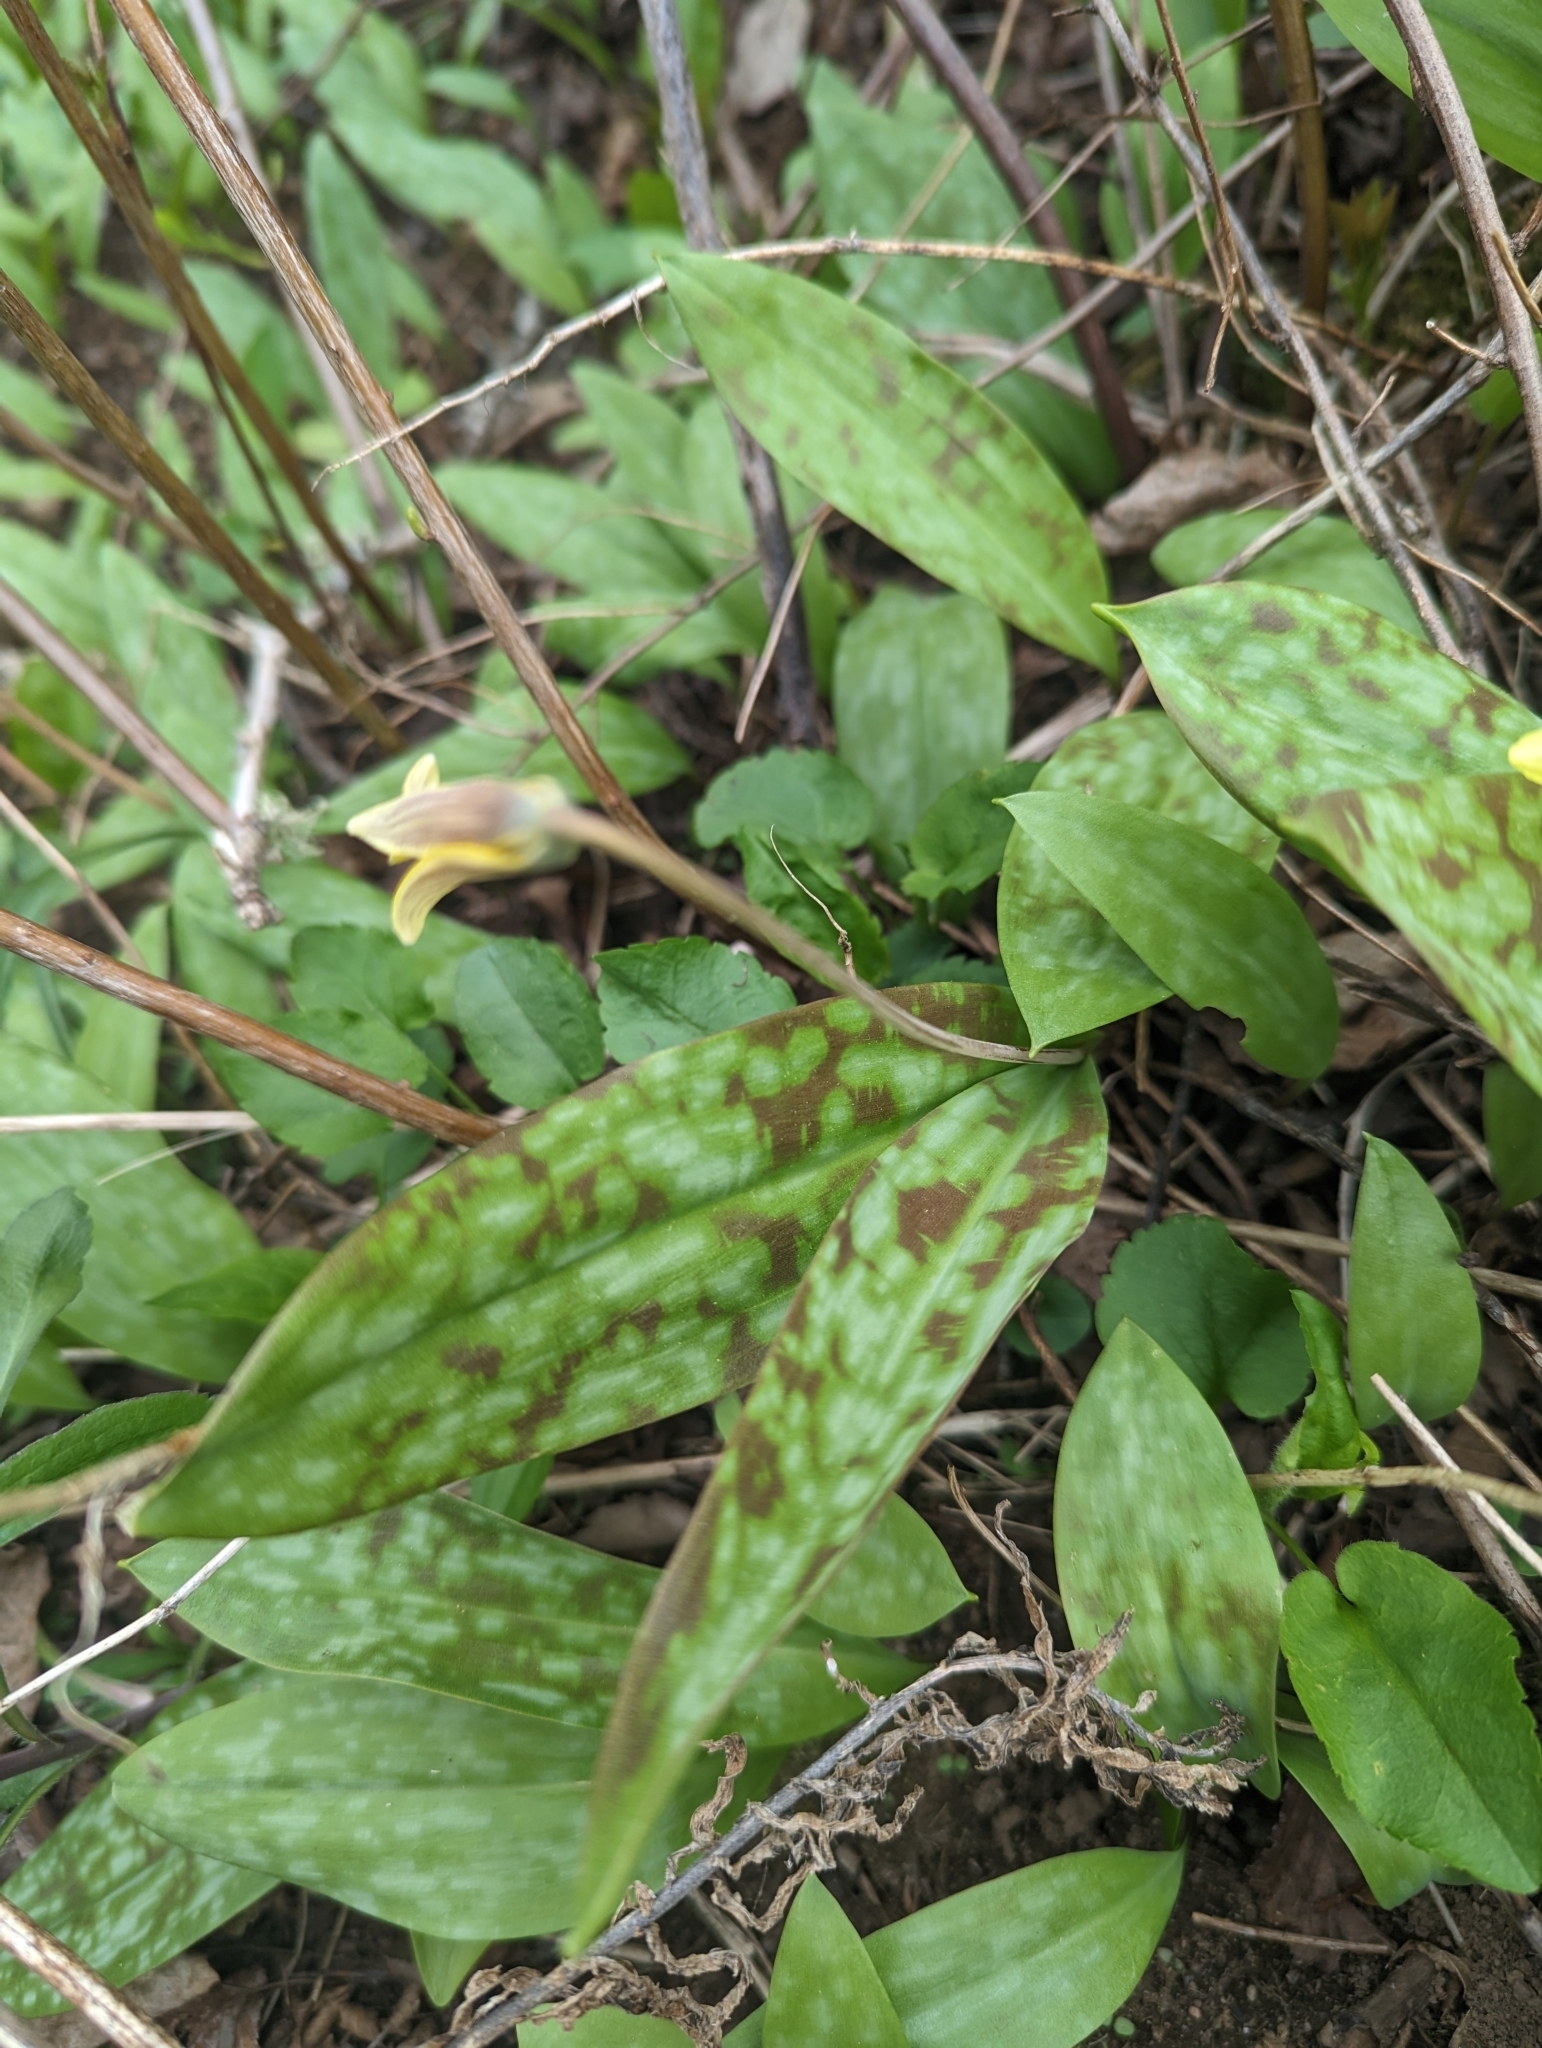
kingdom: Plantae
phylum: Tracheophyta
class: Liliopsida
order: Liliales
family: Liliaceae
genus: Erythronium
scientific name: Erythronium americanum
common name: Yellow adder's-tongue
